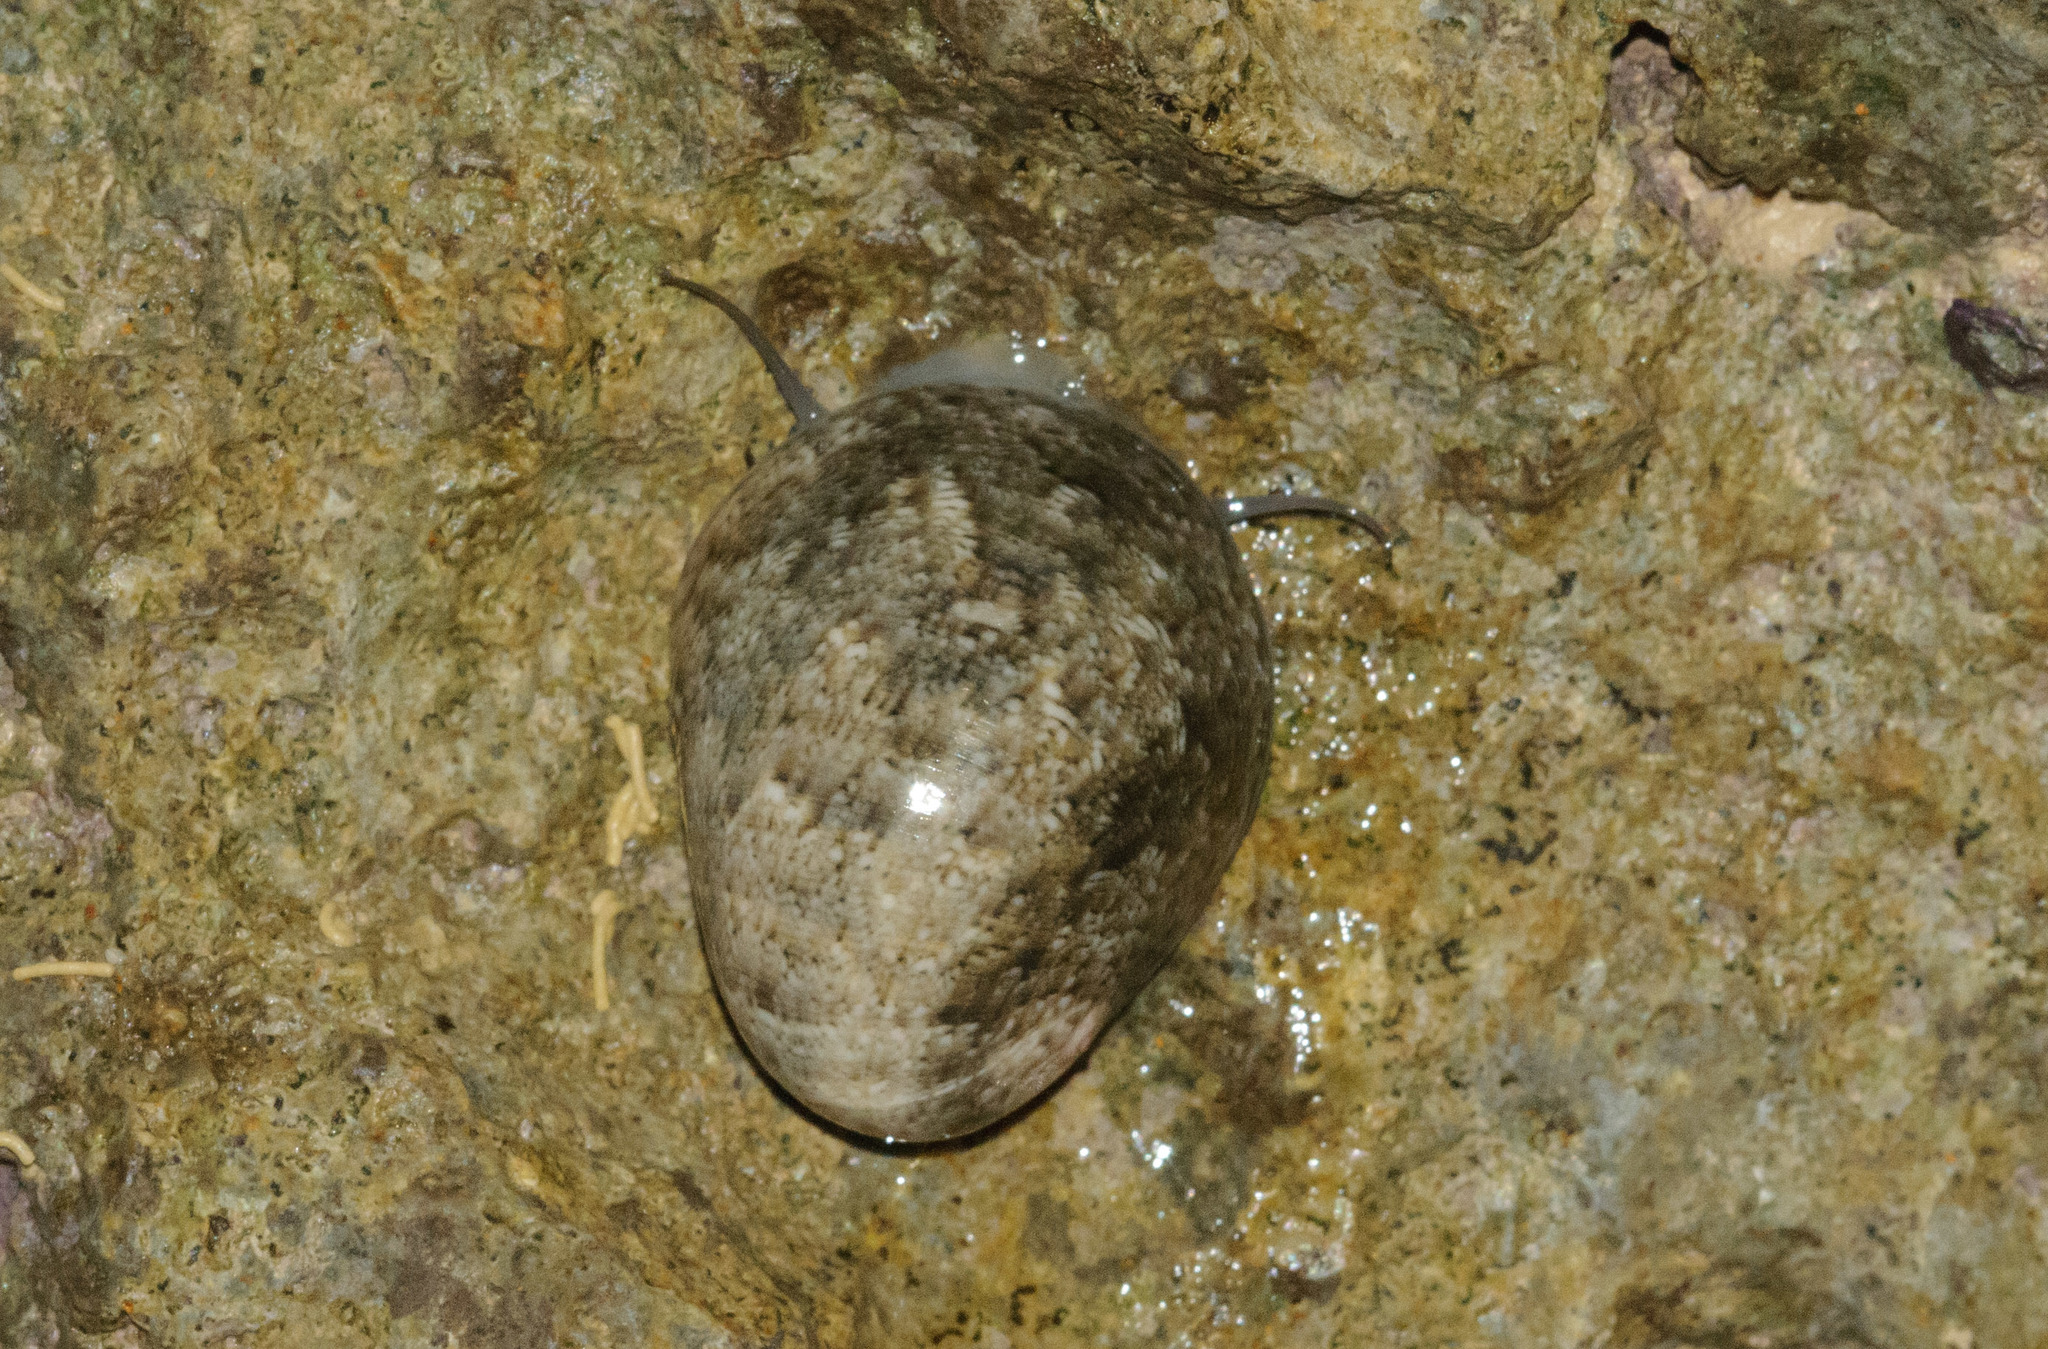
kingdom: Animalia
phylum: Mollusca
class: Gastropoda
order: Cycloneritida
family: Neritidae
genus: Nerita
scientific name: Nerita polita
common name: Polished nerite
